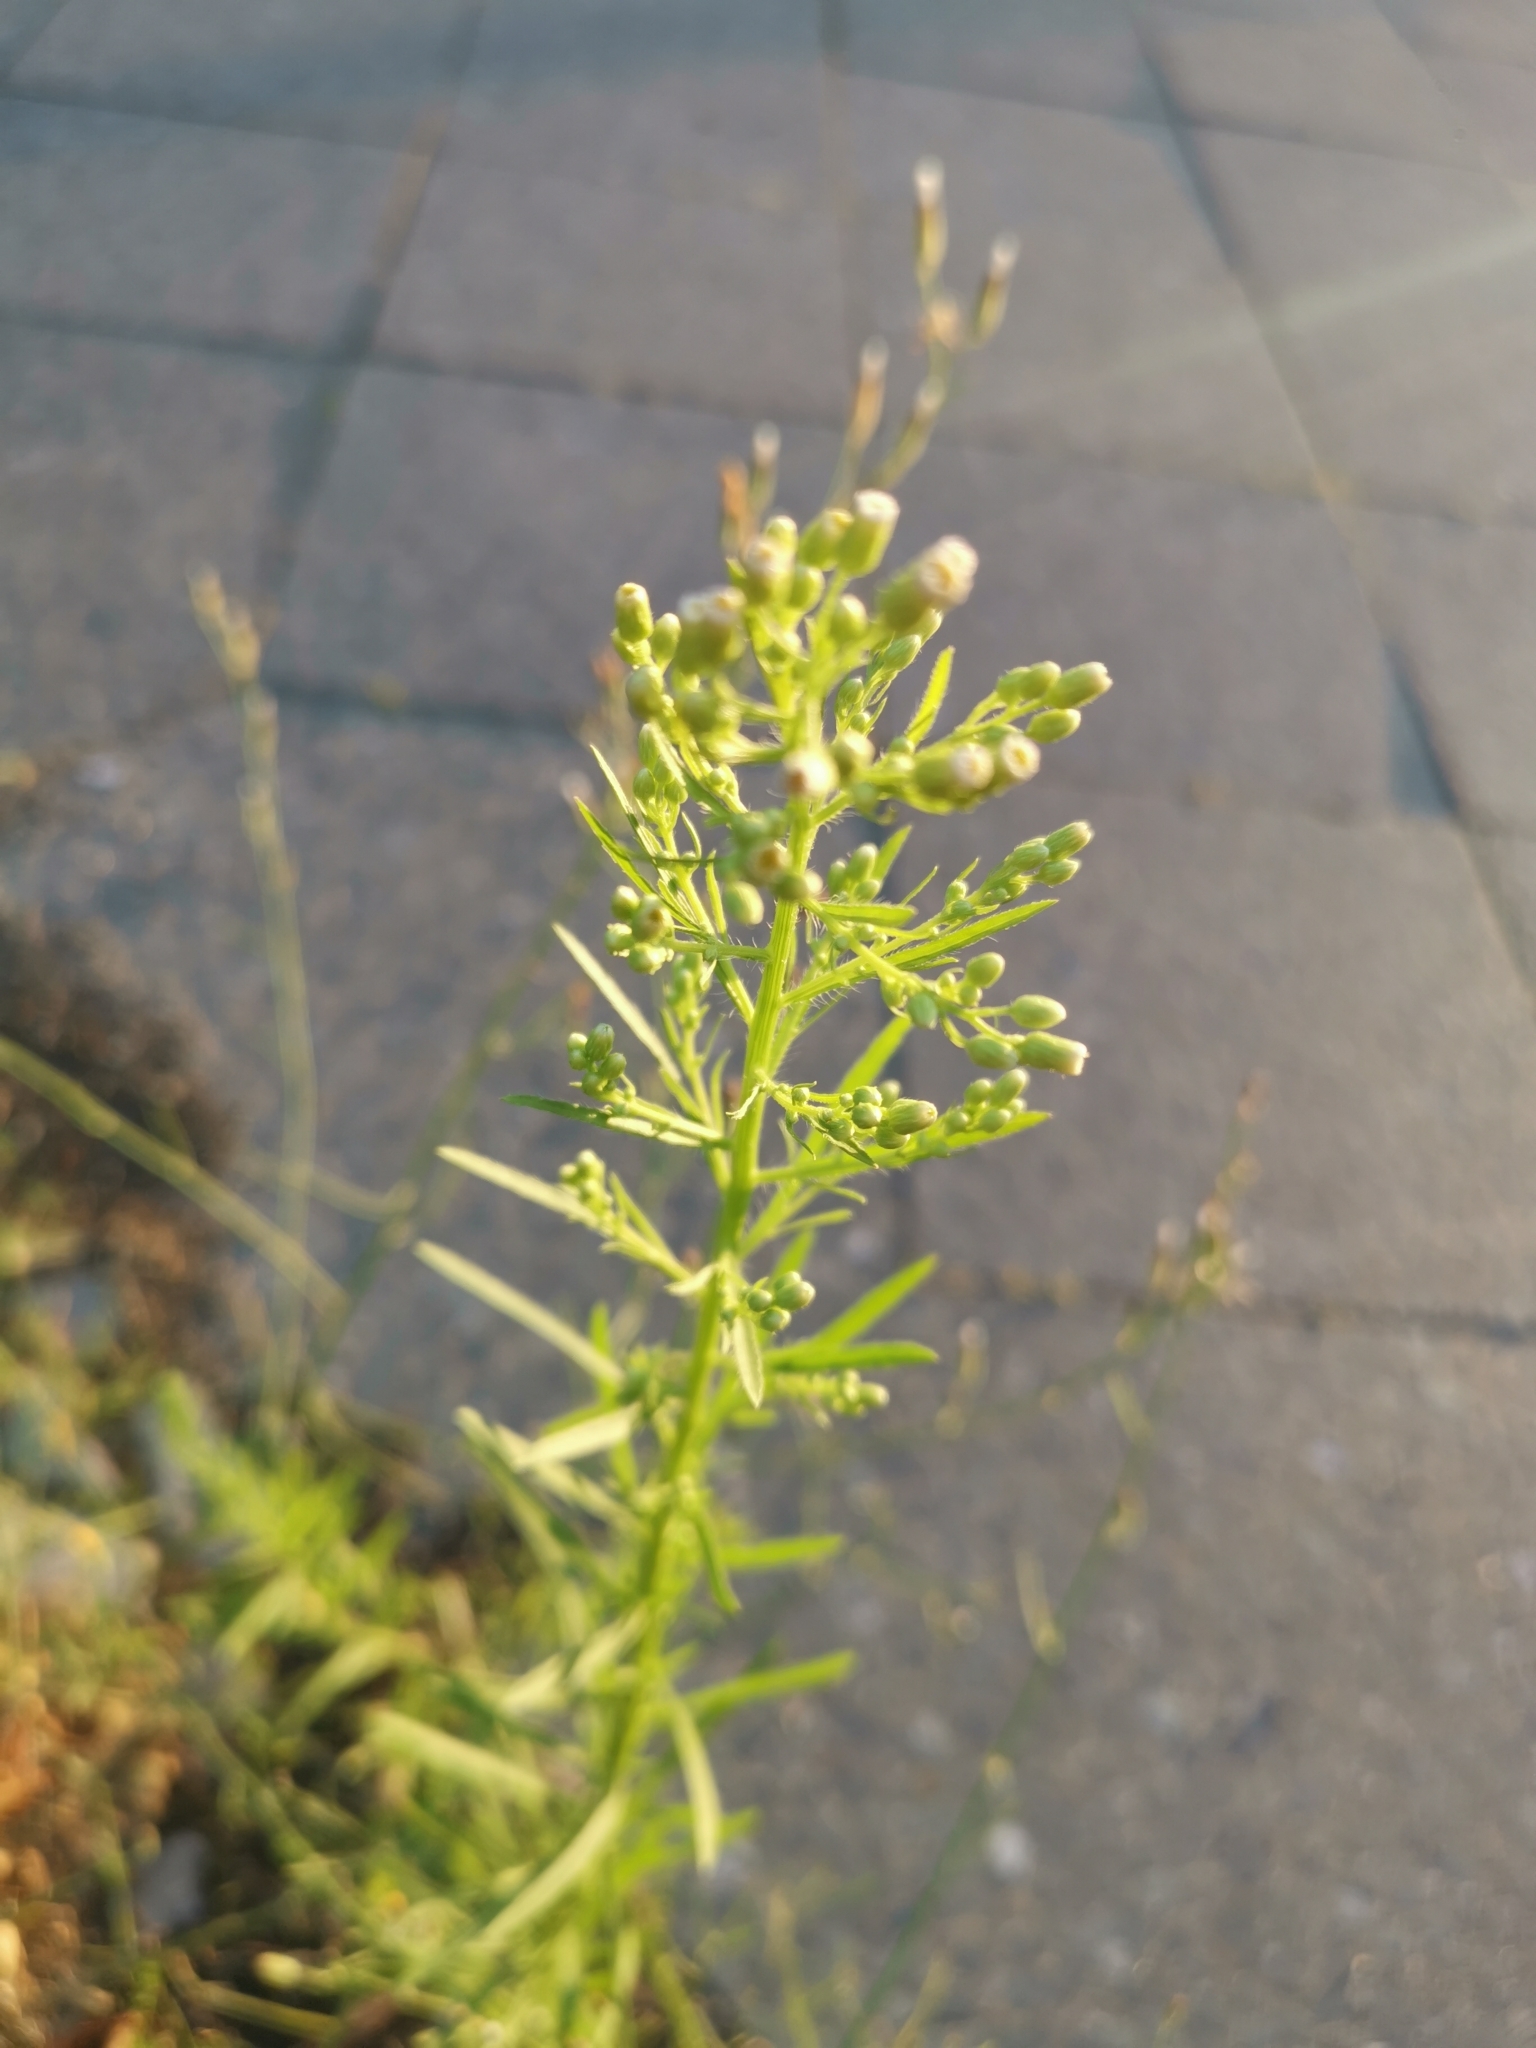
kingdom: Plantae
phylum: Tracheophyta
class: Magnoliopsida
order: Asterales
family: Asteraceae
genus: Erigeron
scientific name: Erigeron canadensis
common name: Canadian fleabane
